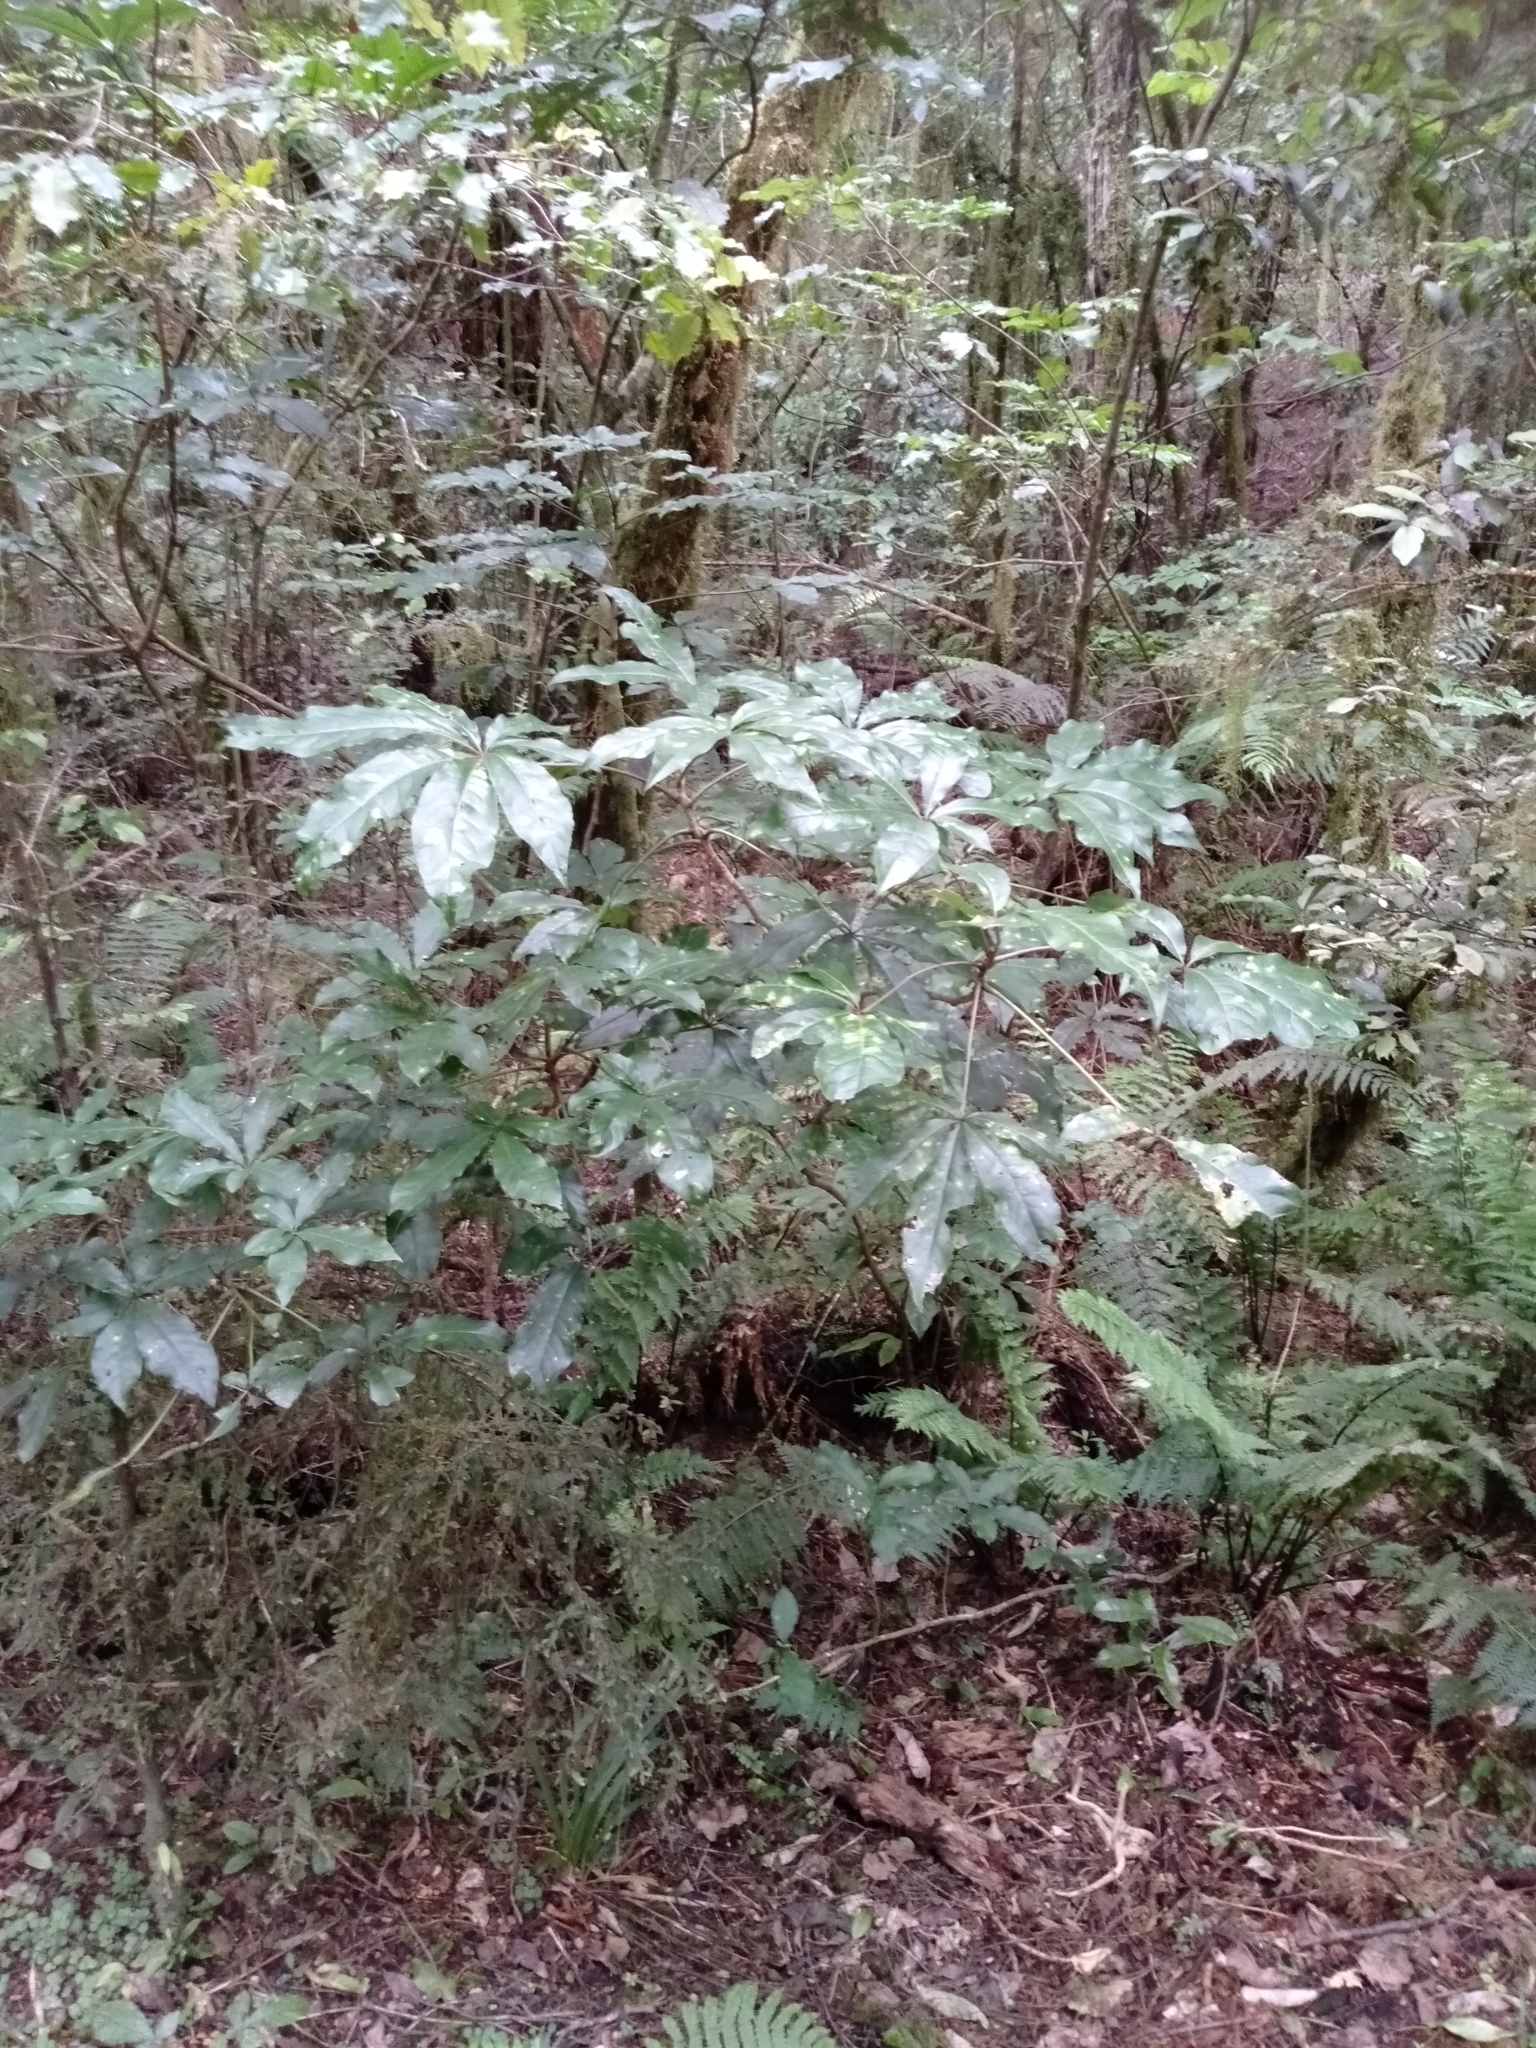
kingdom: Plantae
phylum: Tracheophyta
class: Magnoliopsida
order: Apiales
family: Araliaceae
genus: Schefflera
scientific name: Schefflera digitata
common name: Pate
